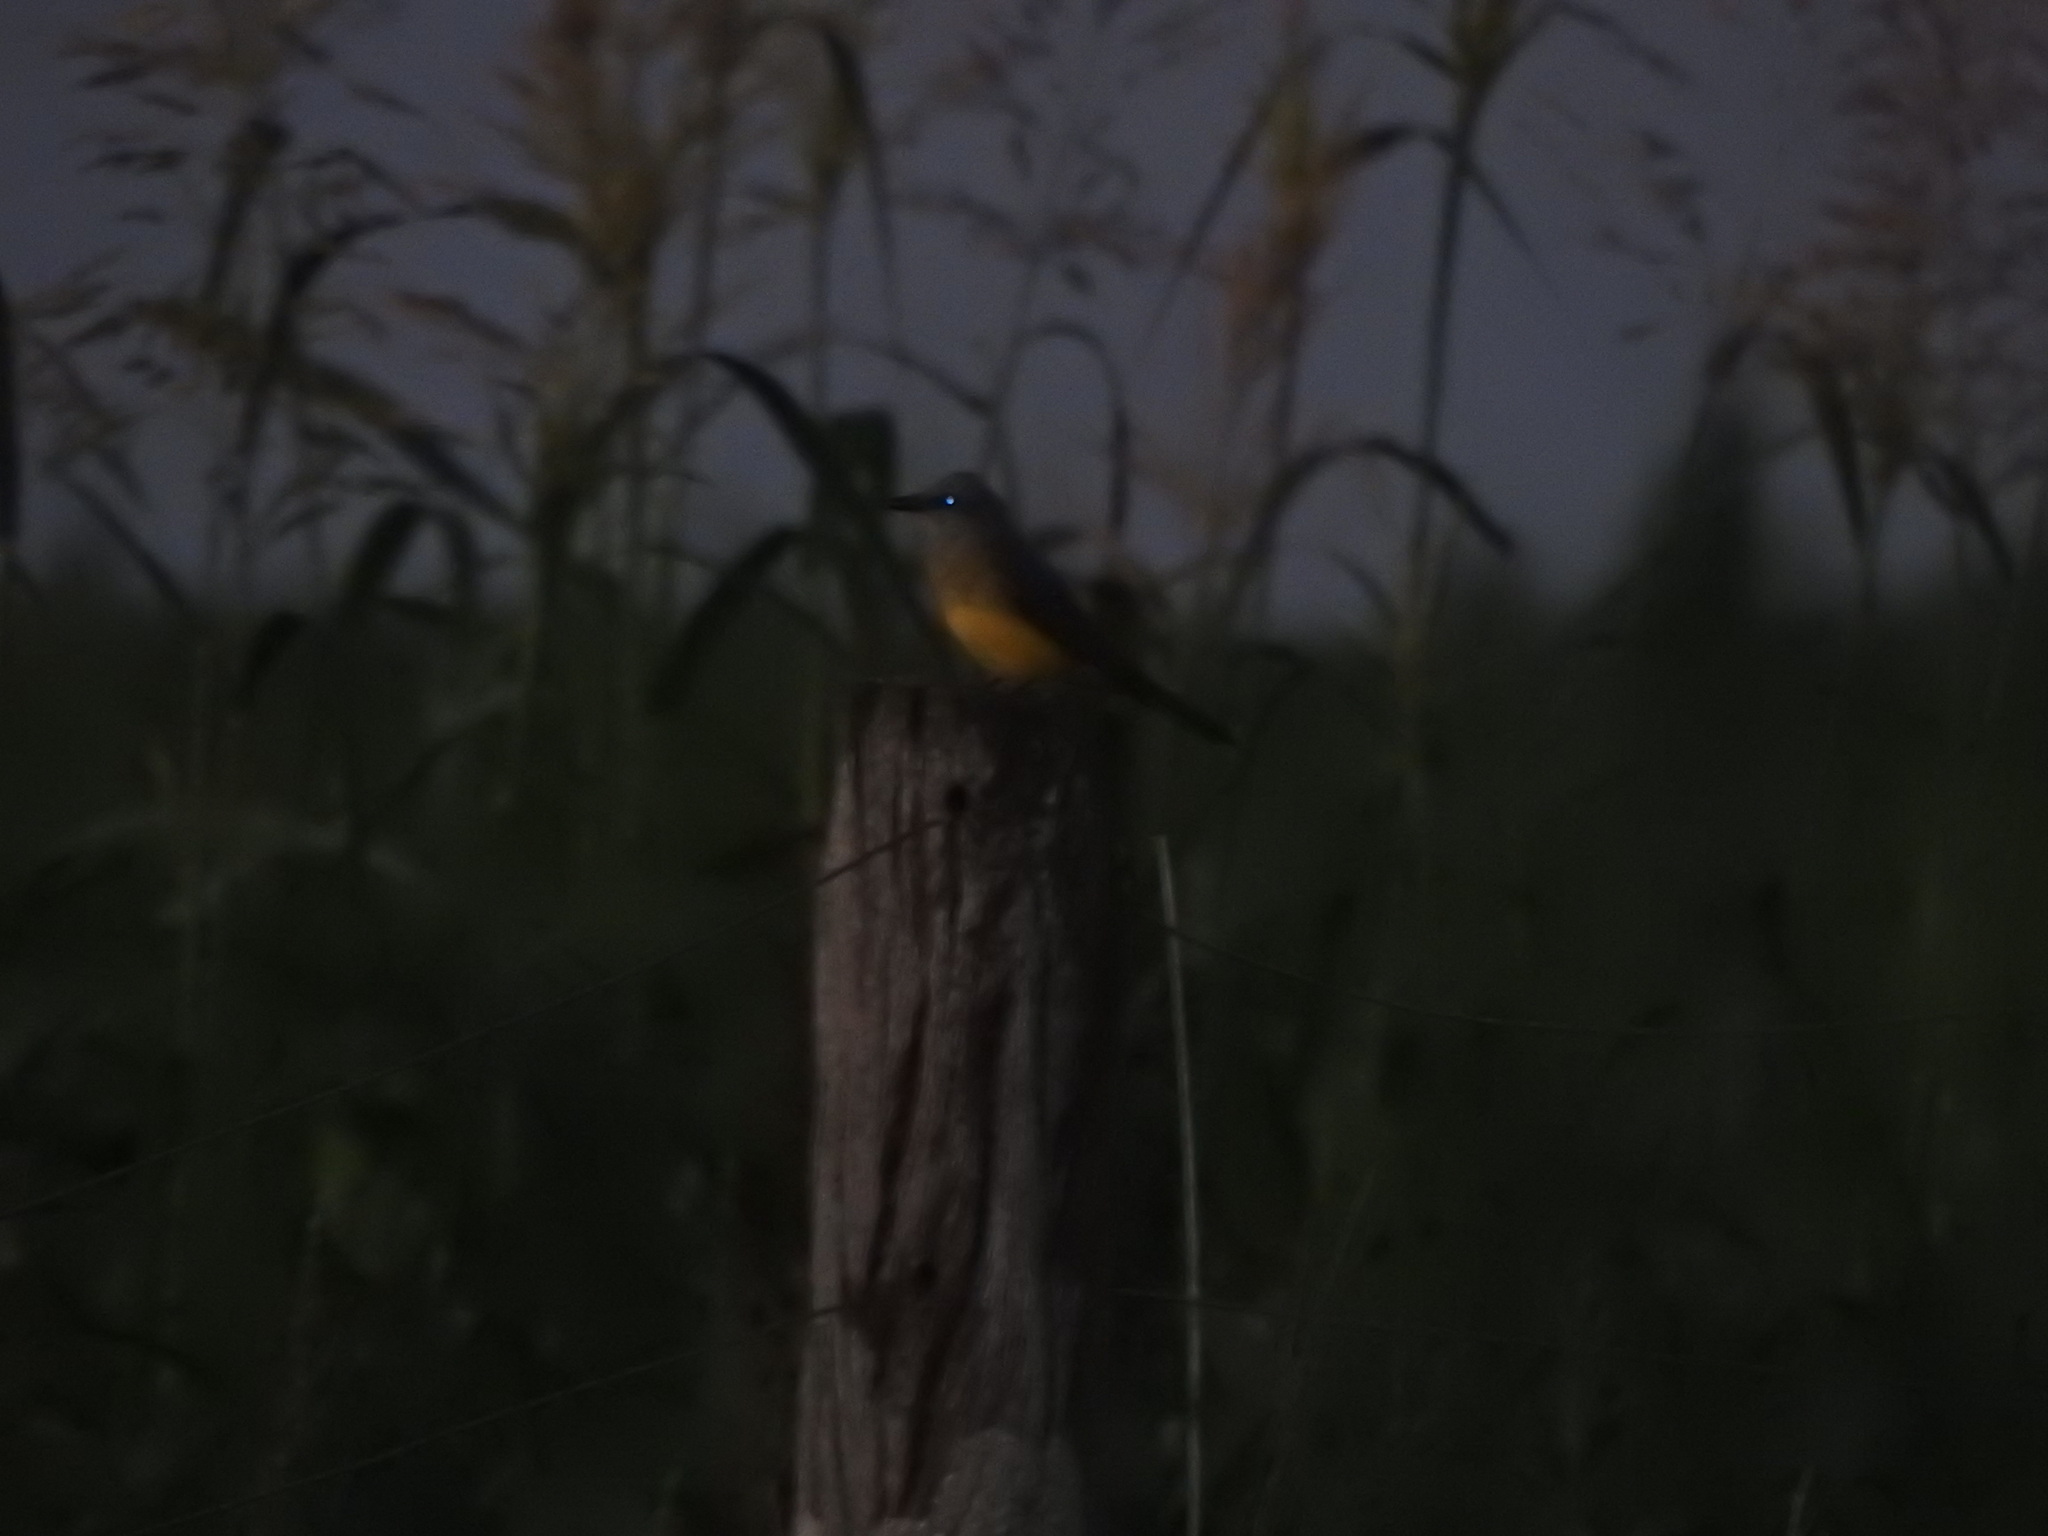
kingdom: Animalia
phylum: Chordata
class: Aves
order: Passeriformes
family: Tyrannidae
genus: Tyrannus
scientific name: Tyrannus melancholicus
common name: Tropical kingbird
